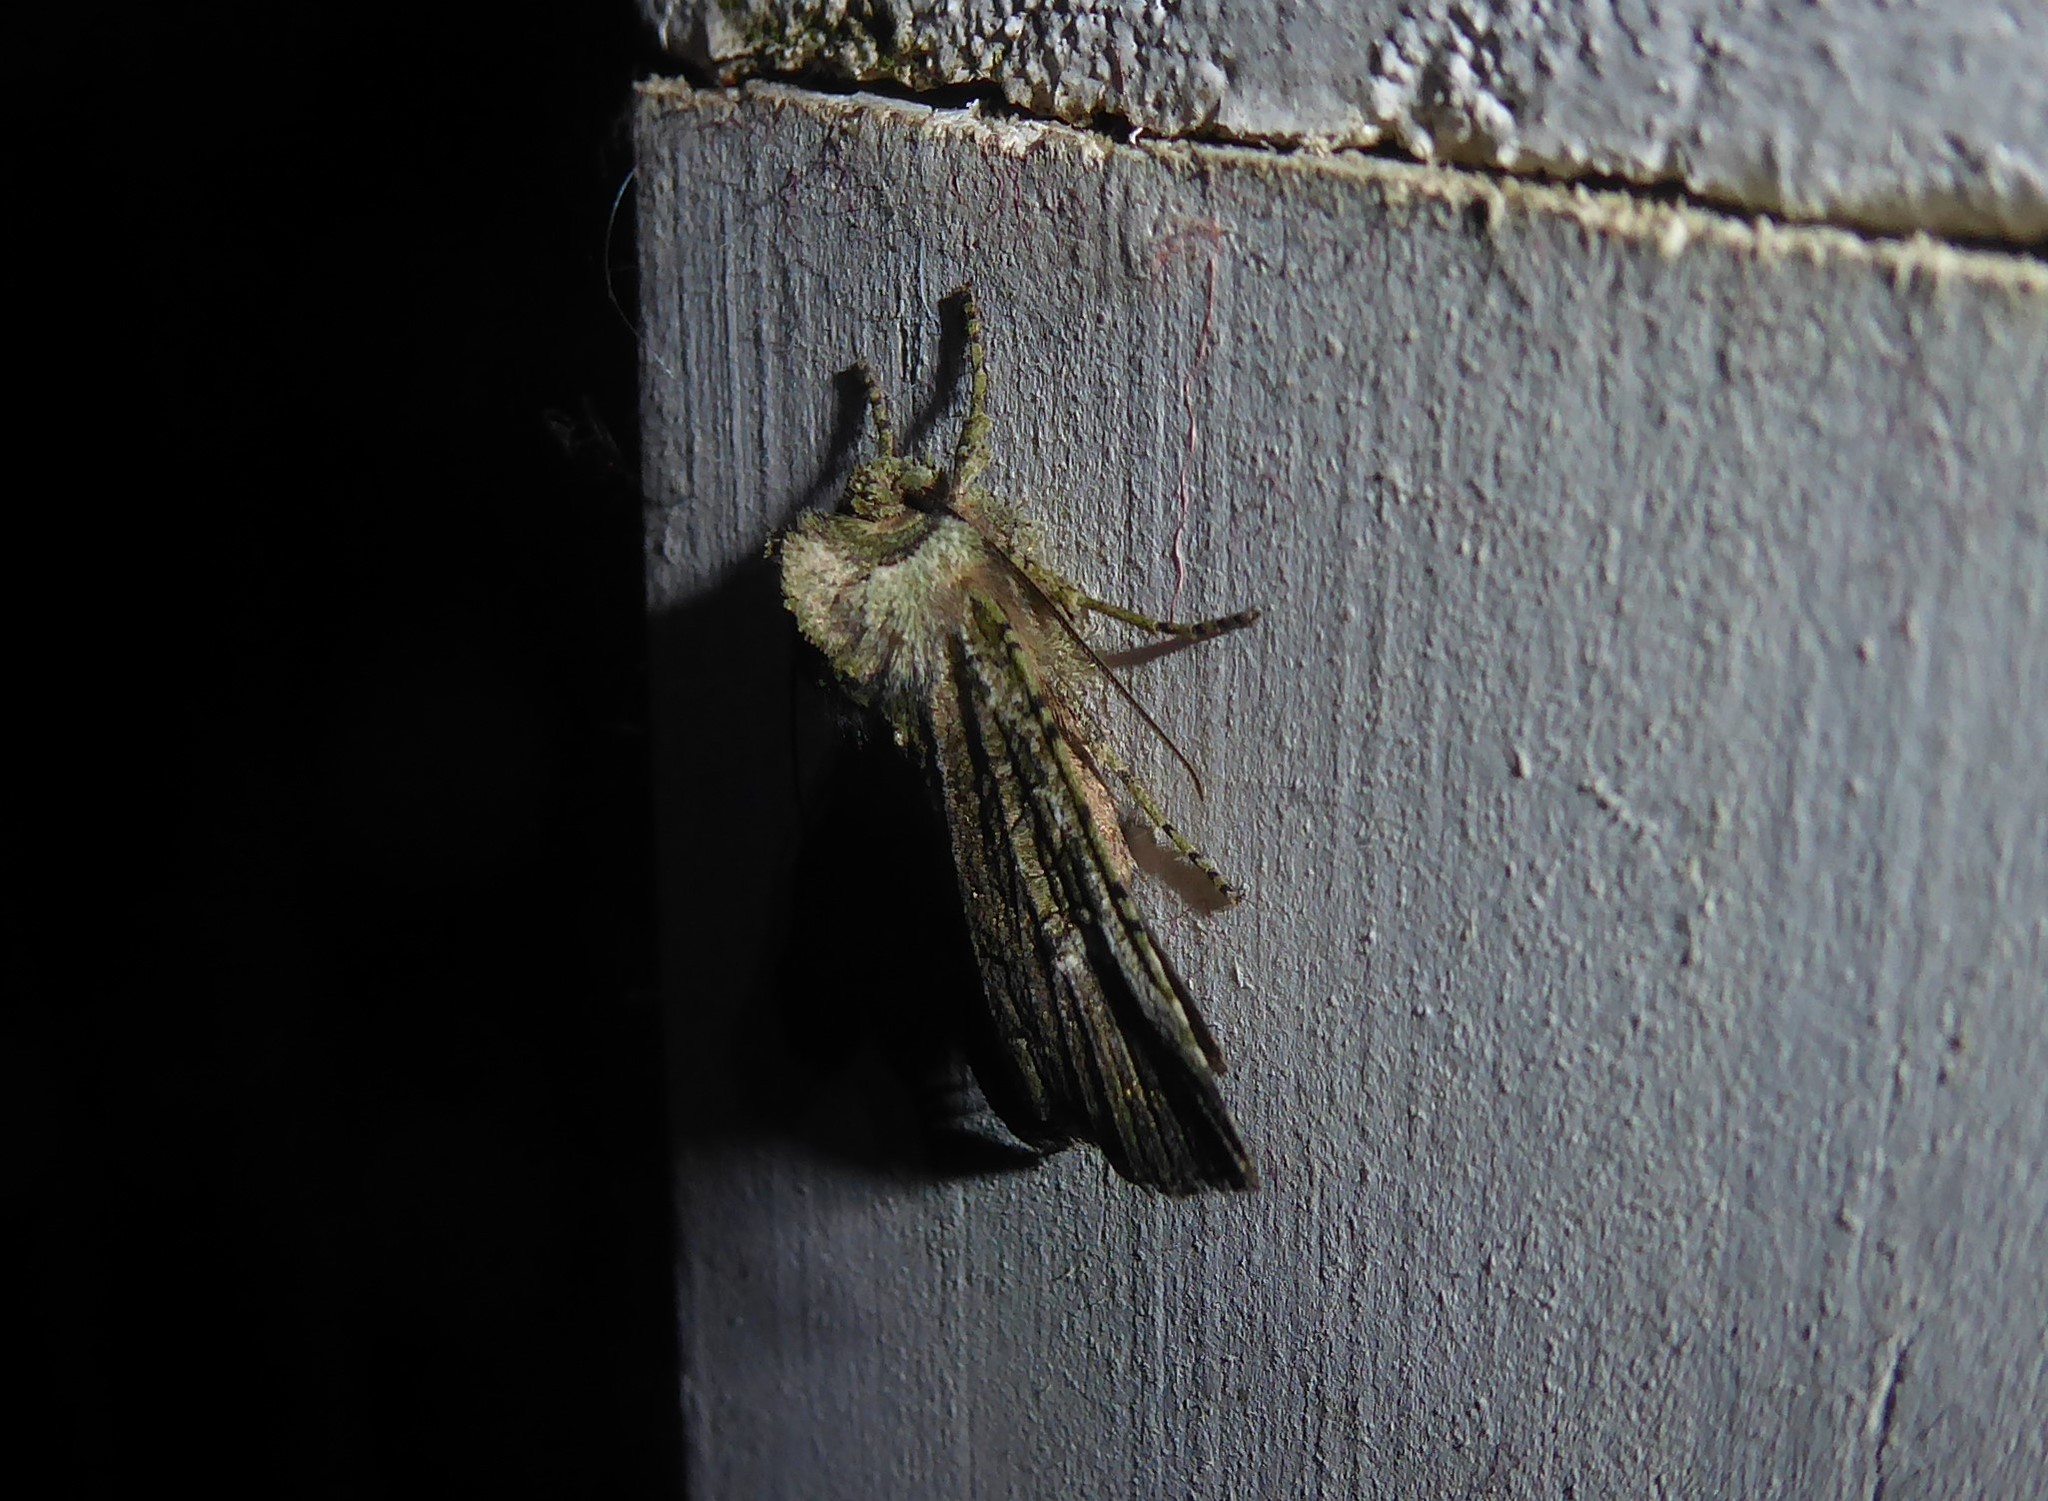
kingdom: Animalia
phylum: Arthropoda
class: Insecta
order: Lepidoptera
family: Noctuidae
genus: Meterana
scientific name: Meterana levis
